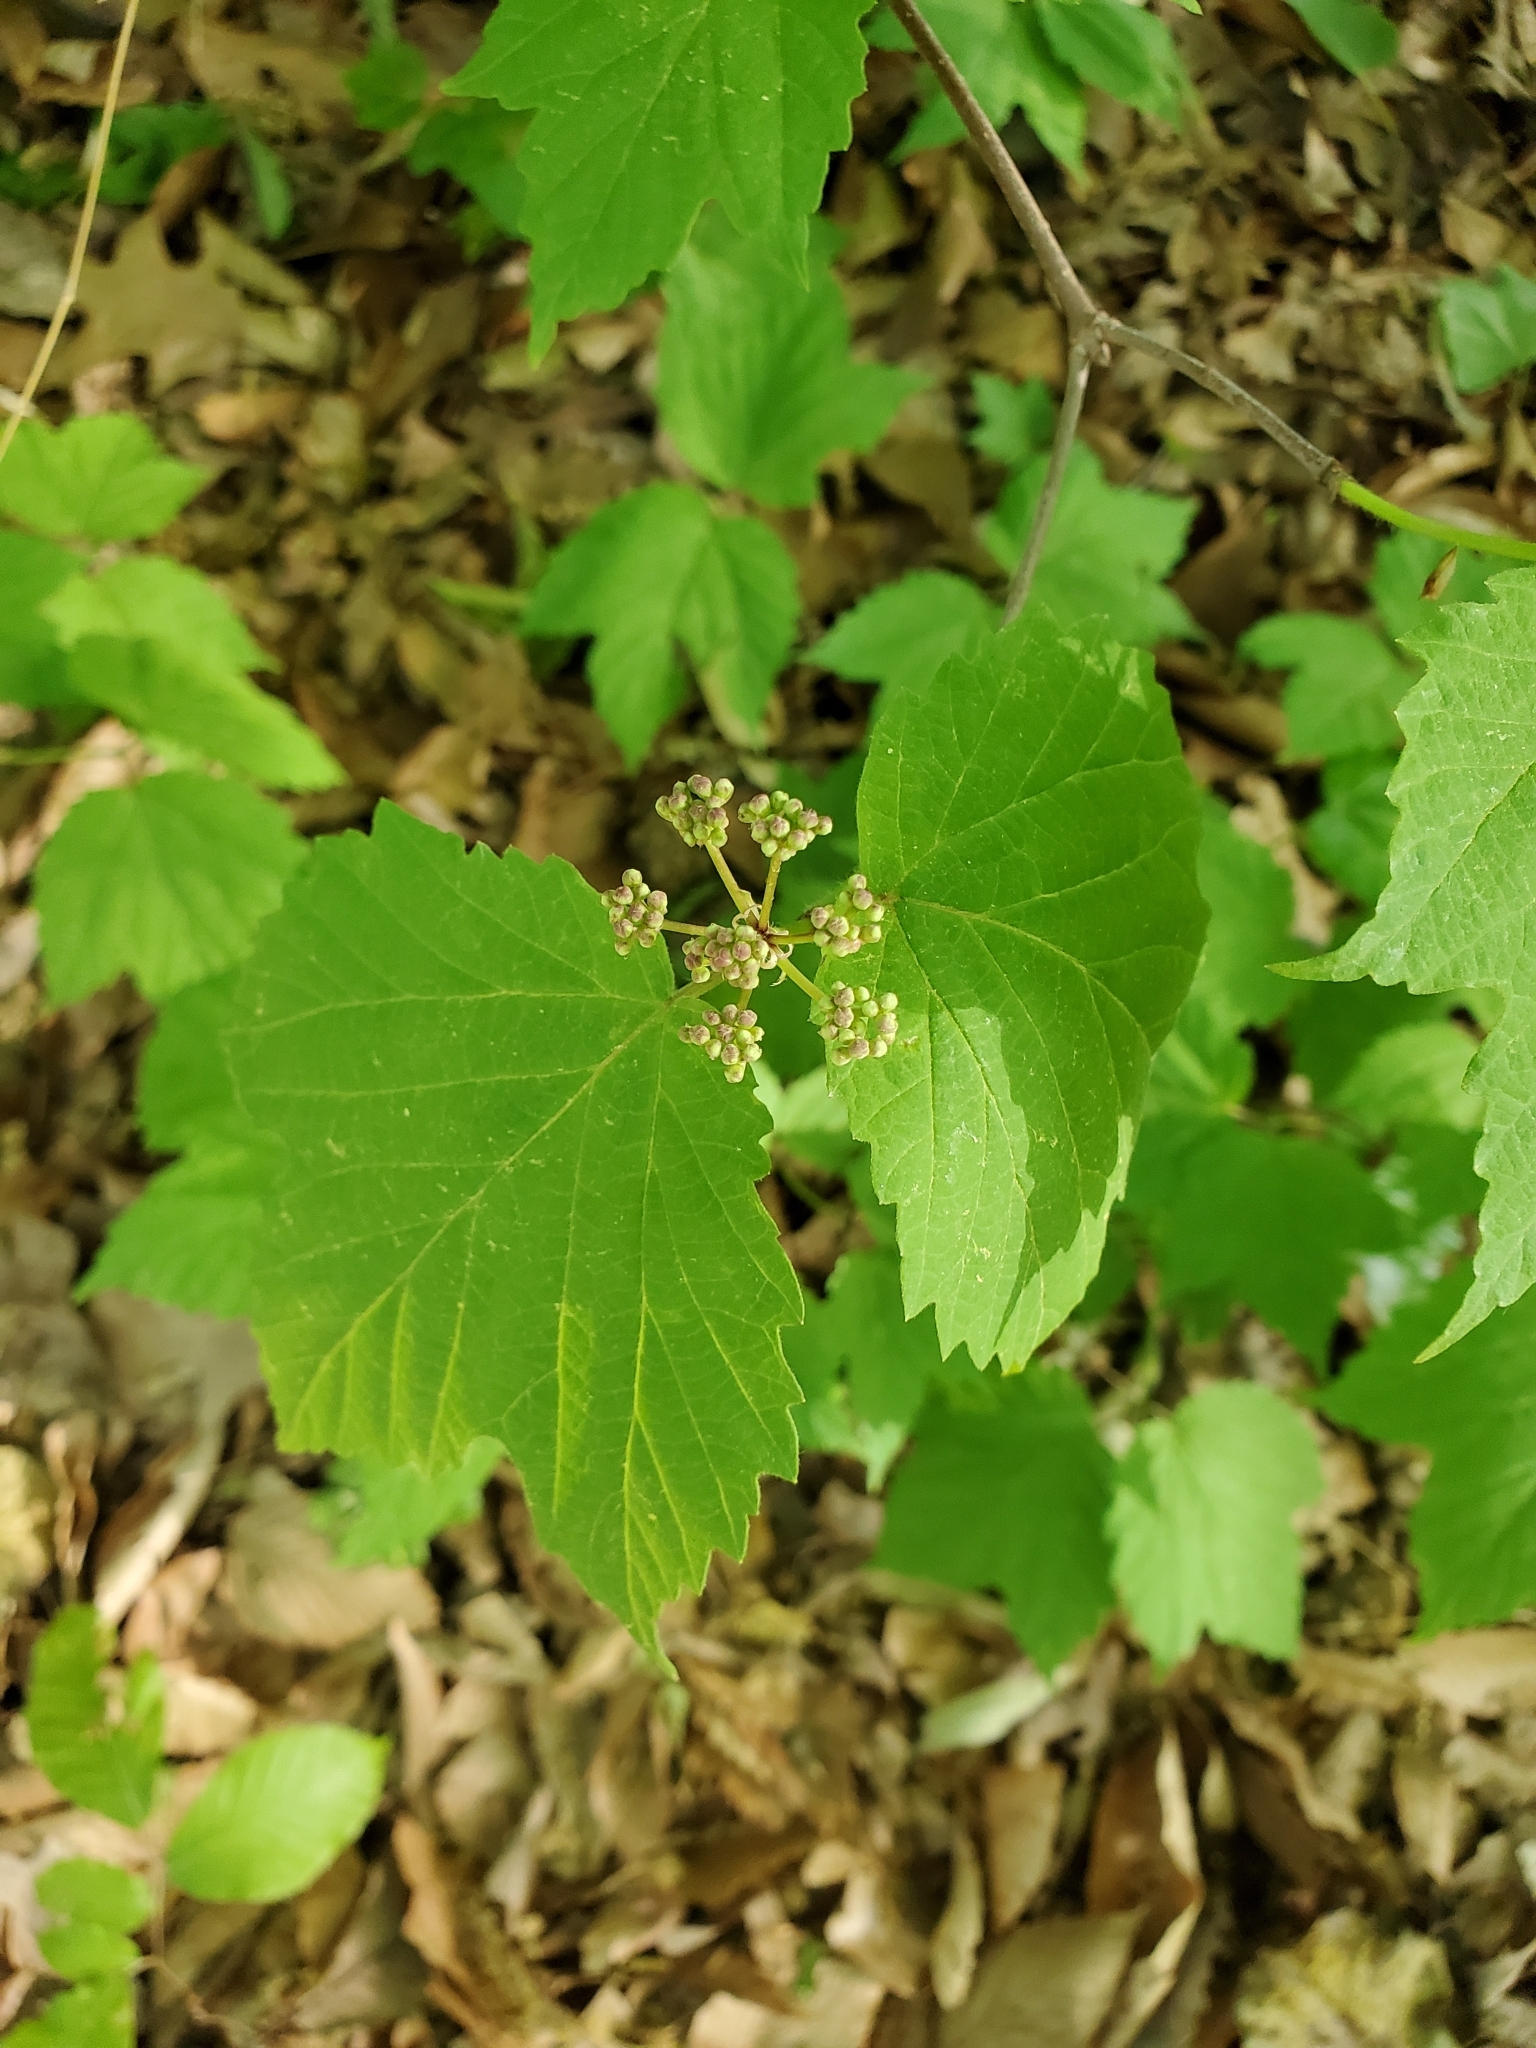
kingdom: Plantae
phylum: Tracheophyta
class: Magnoliopsida
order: Dipsacales
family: Viburnaceae
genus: Viburnum
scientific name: Viburnum acerifolium
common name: Dockmackie
